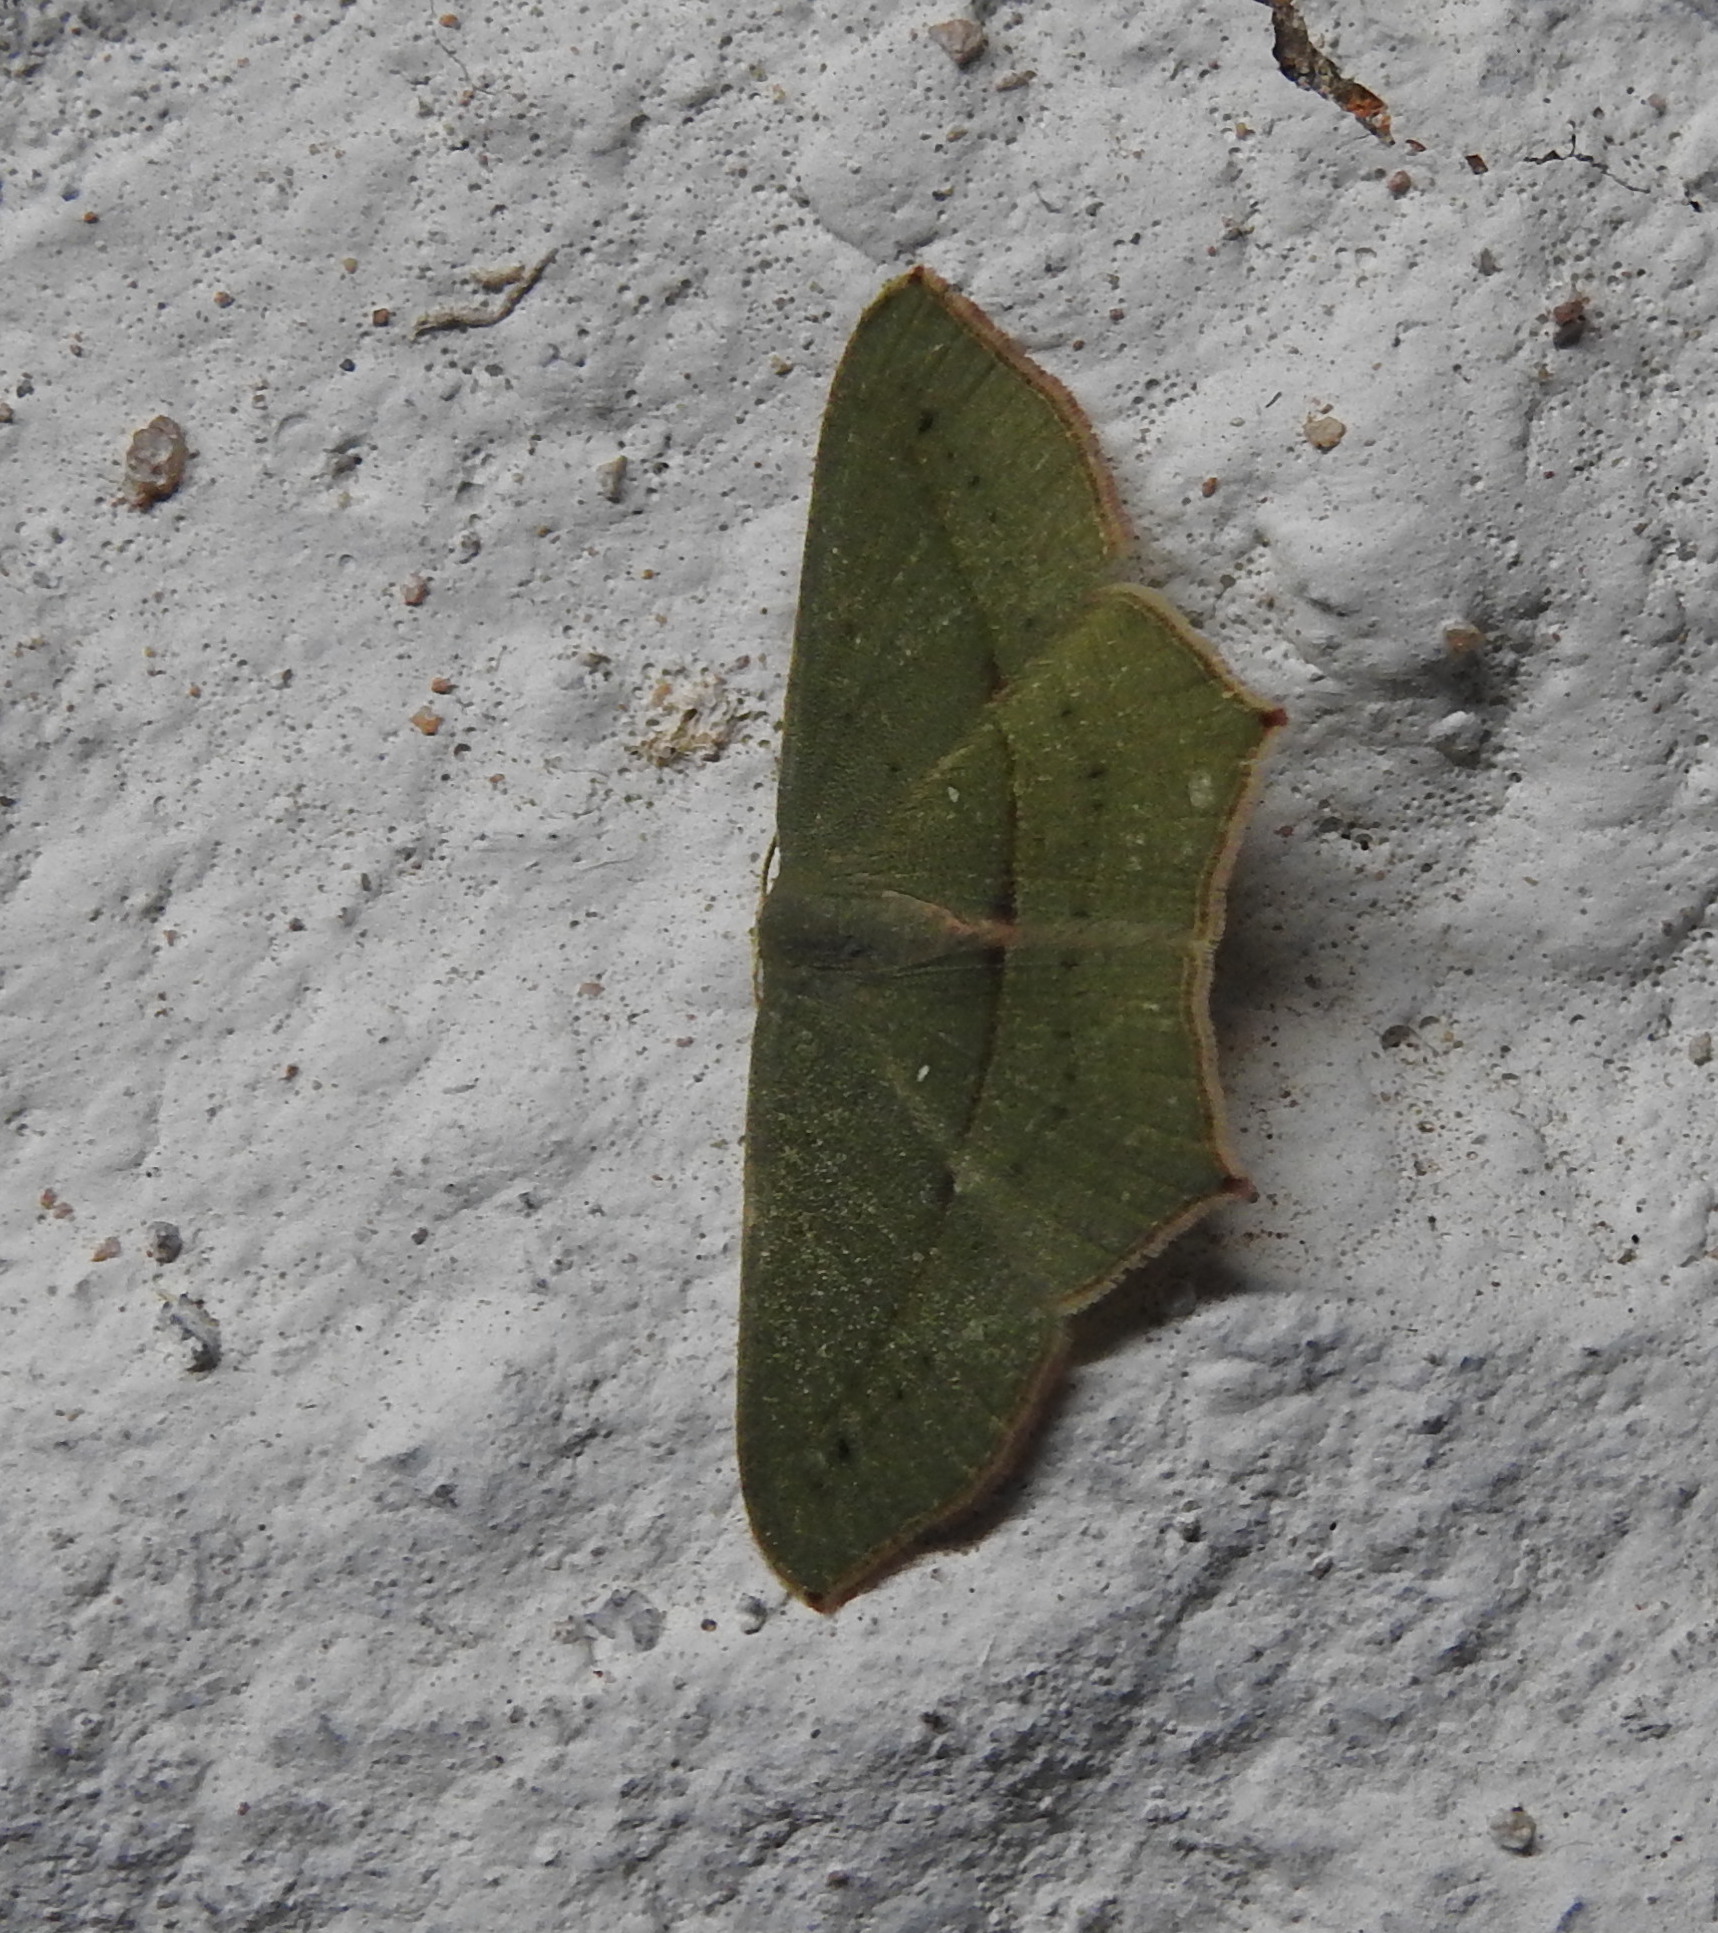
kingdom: Animalia
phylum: Arthropoda
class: Insecta
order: Lepidoptera
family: Geometridae
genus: Traminda
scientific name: Traminda mundissima
